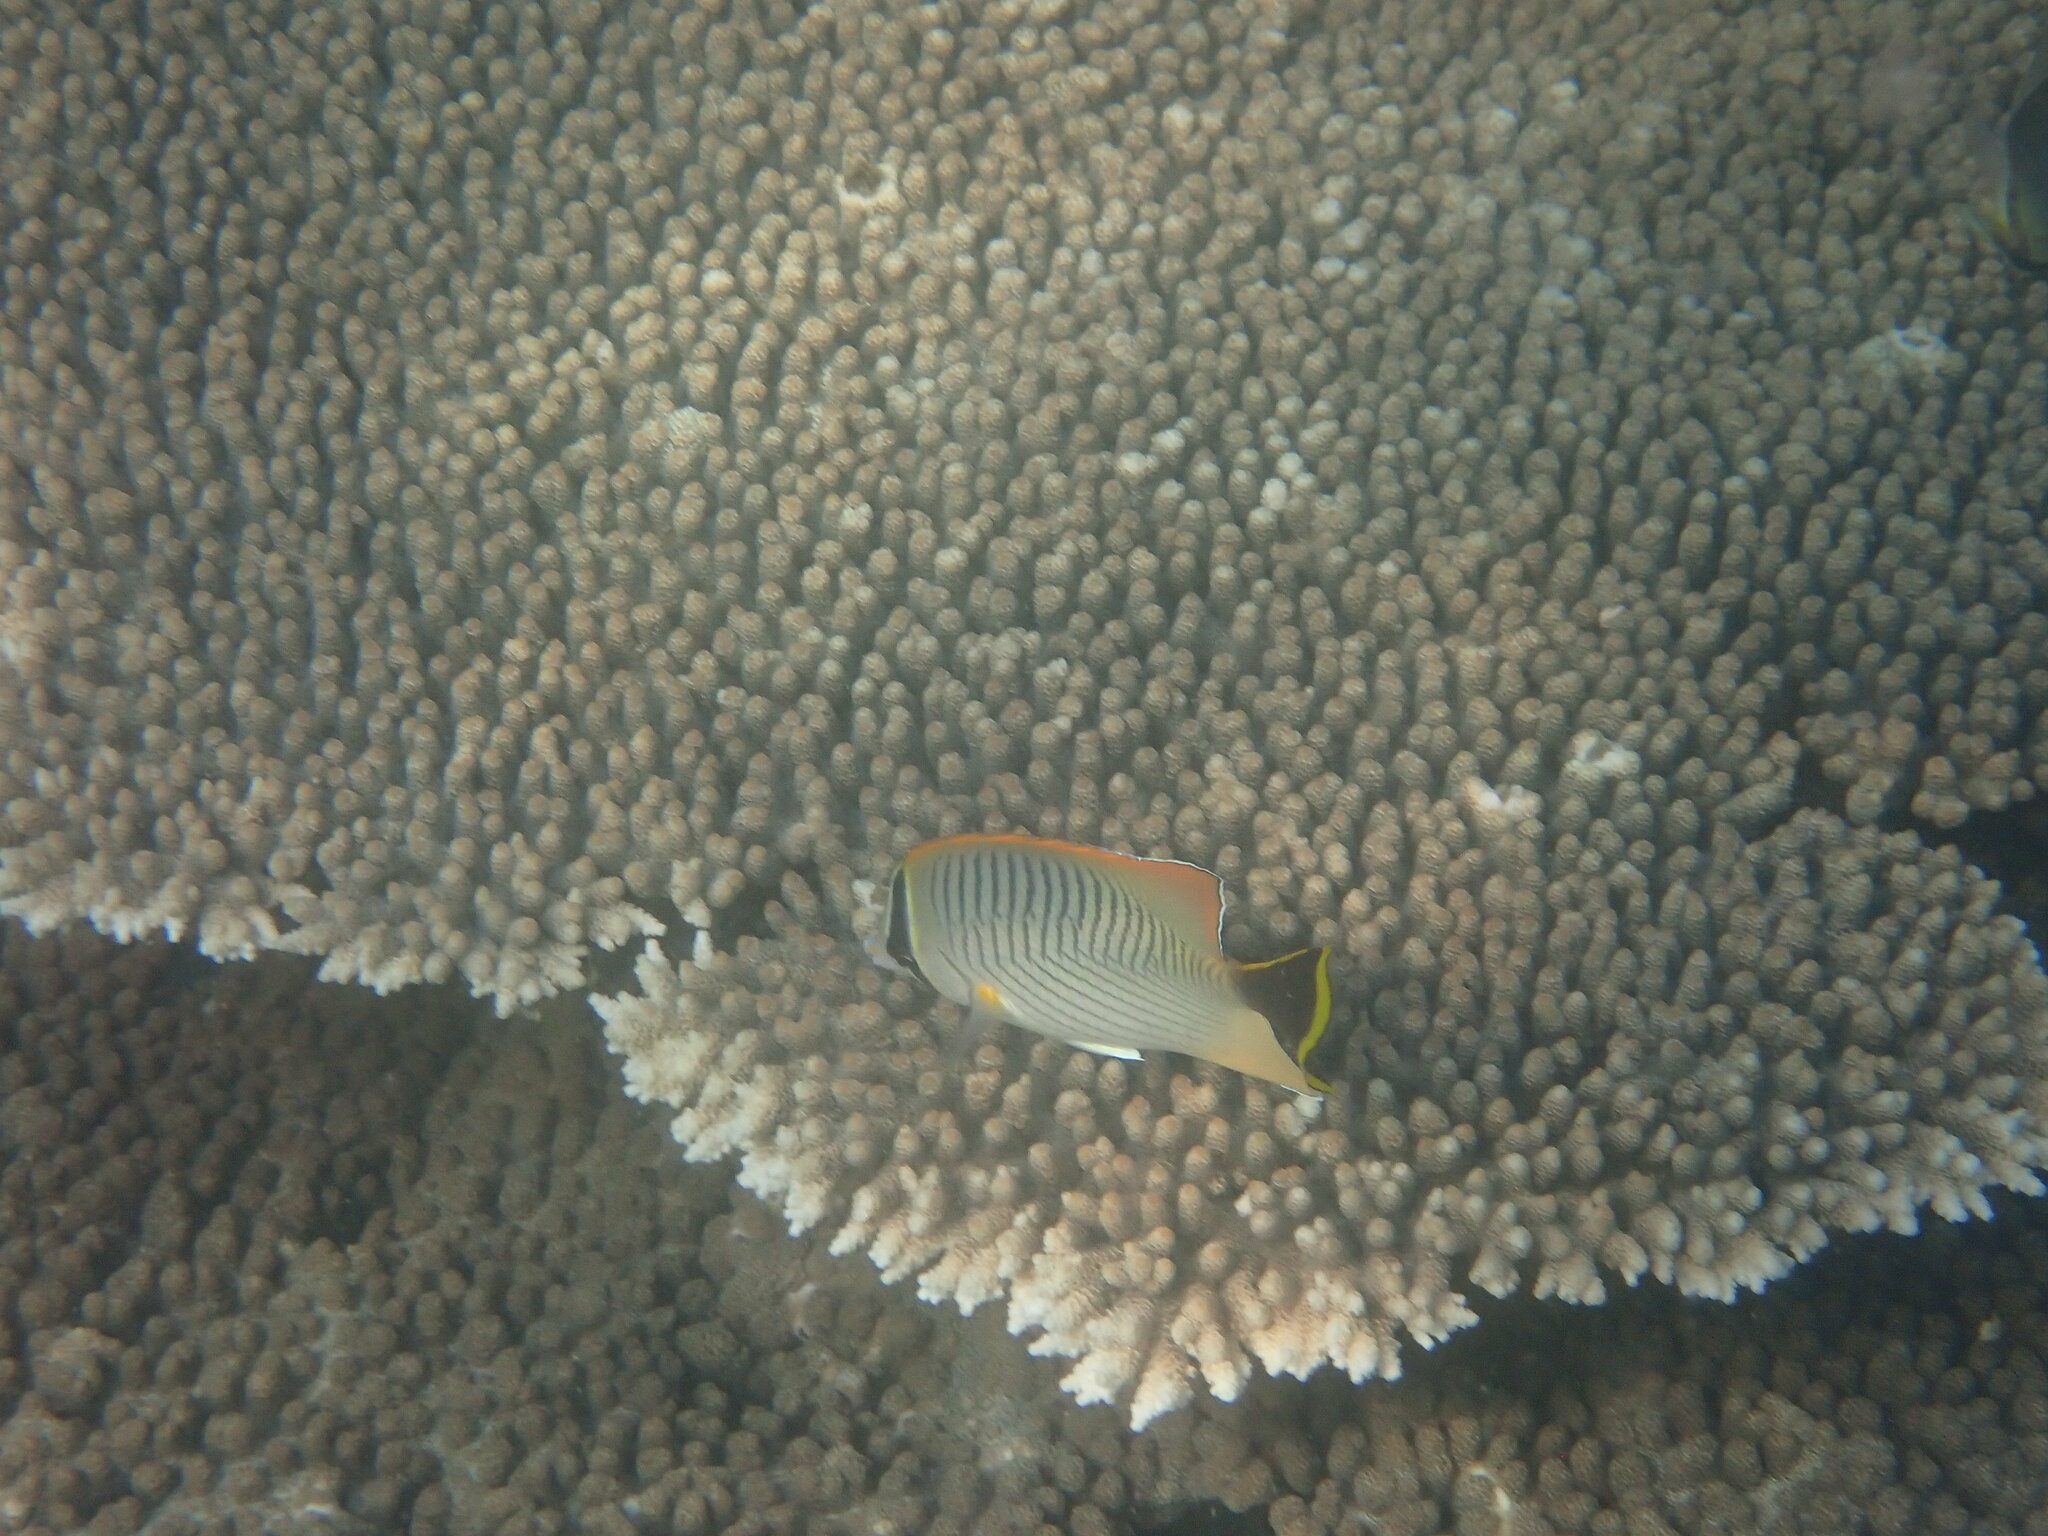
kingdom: Animalia
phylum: Chordata
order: Perciformes
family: Chaetodontidae
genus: Chaetodon
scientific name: Chaetodon trifascialis
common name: Chevroned butterflyfish
